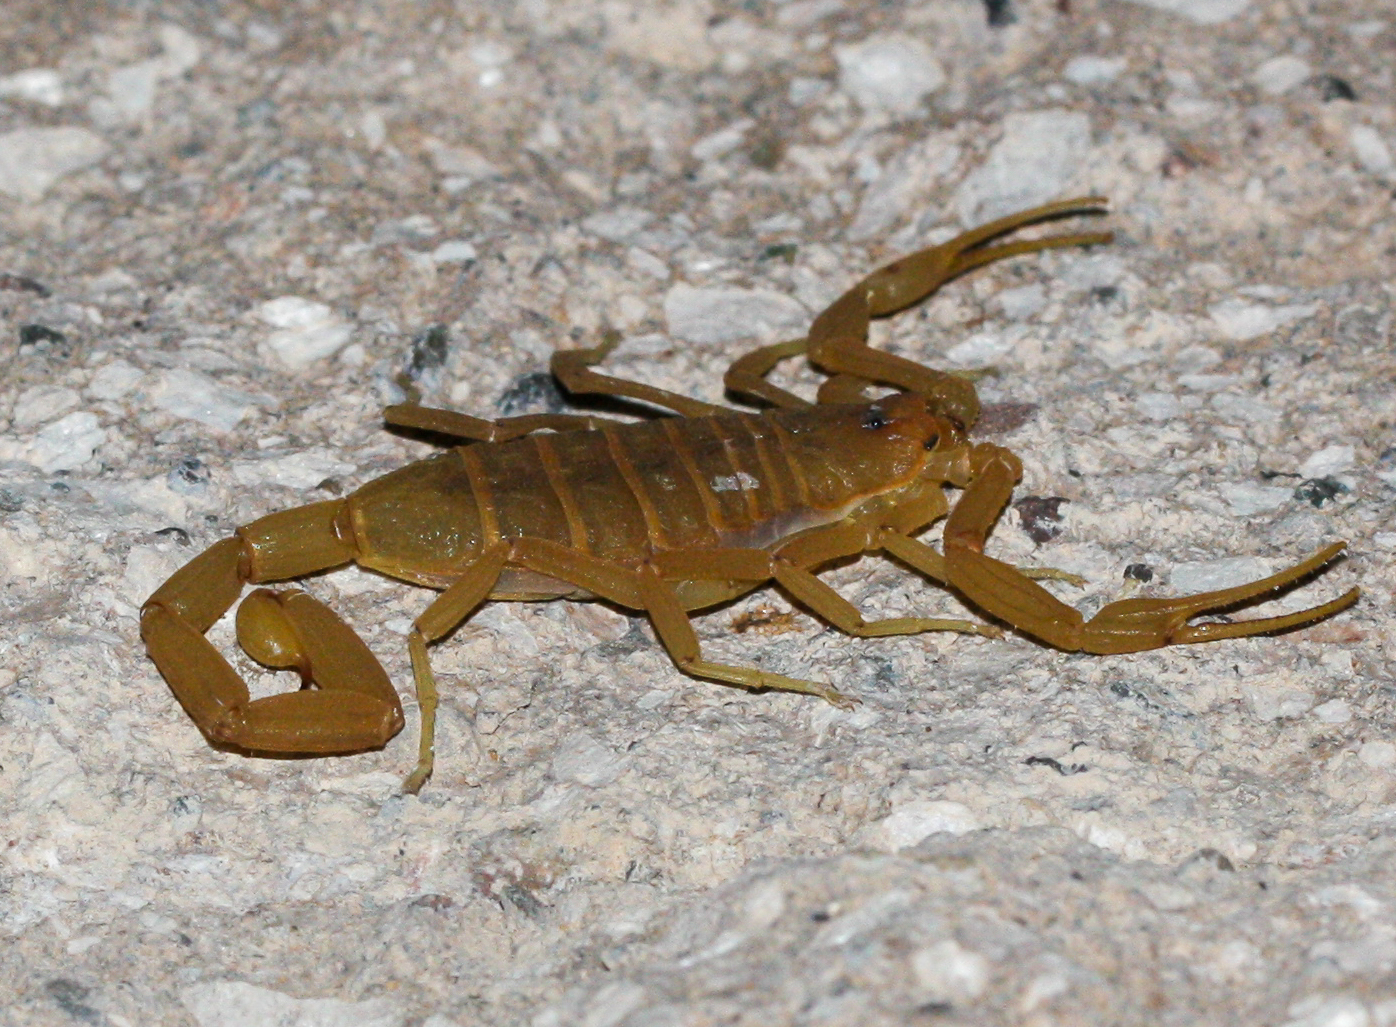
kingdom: Animalia
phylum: Arthropoda
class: Arachnida
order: Scorpiones
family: Buthidae
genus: Centruroides
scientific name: Centruroides sculpturatus
